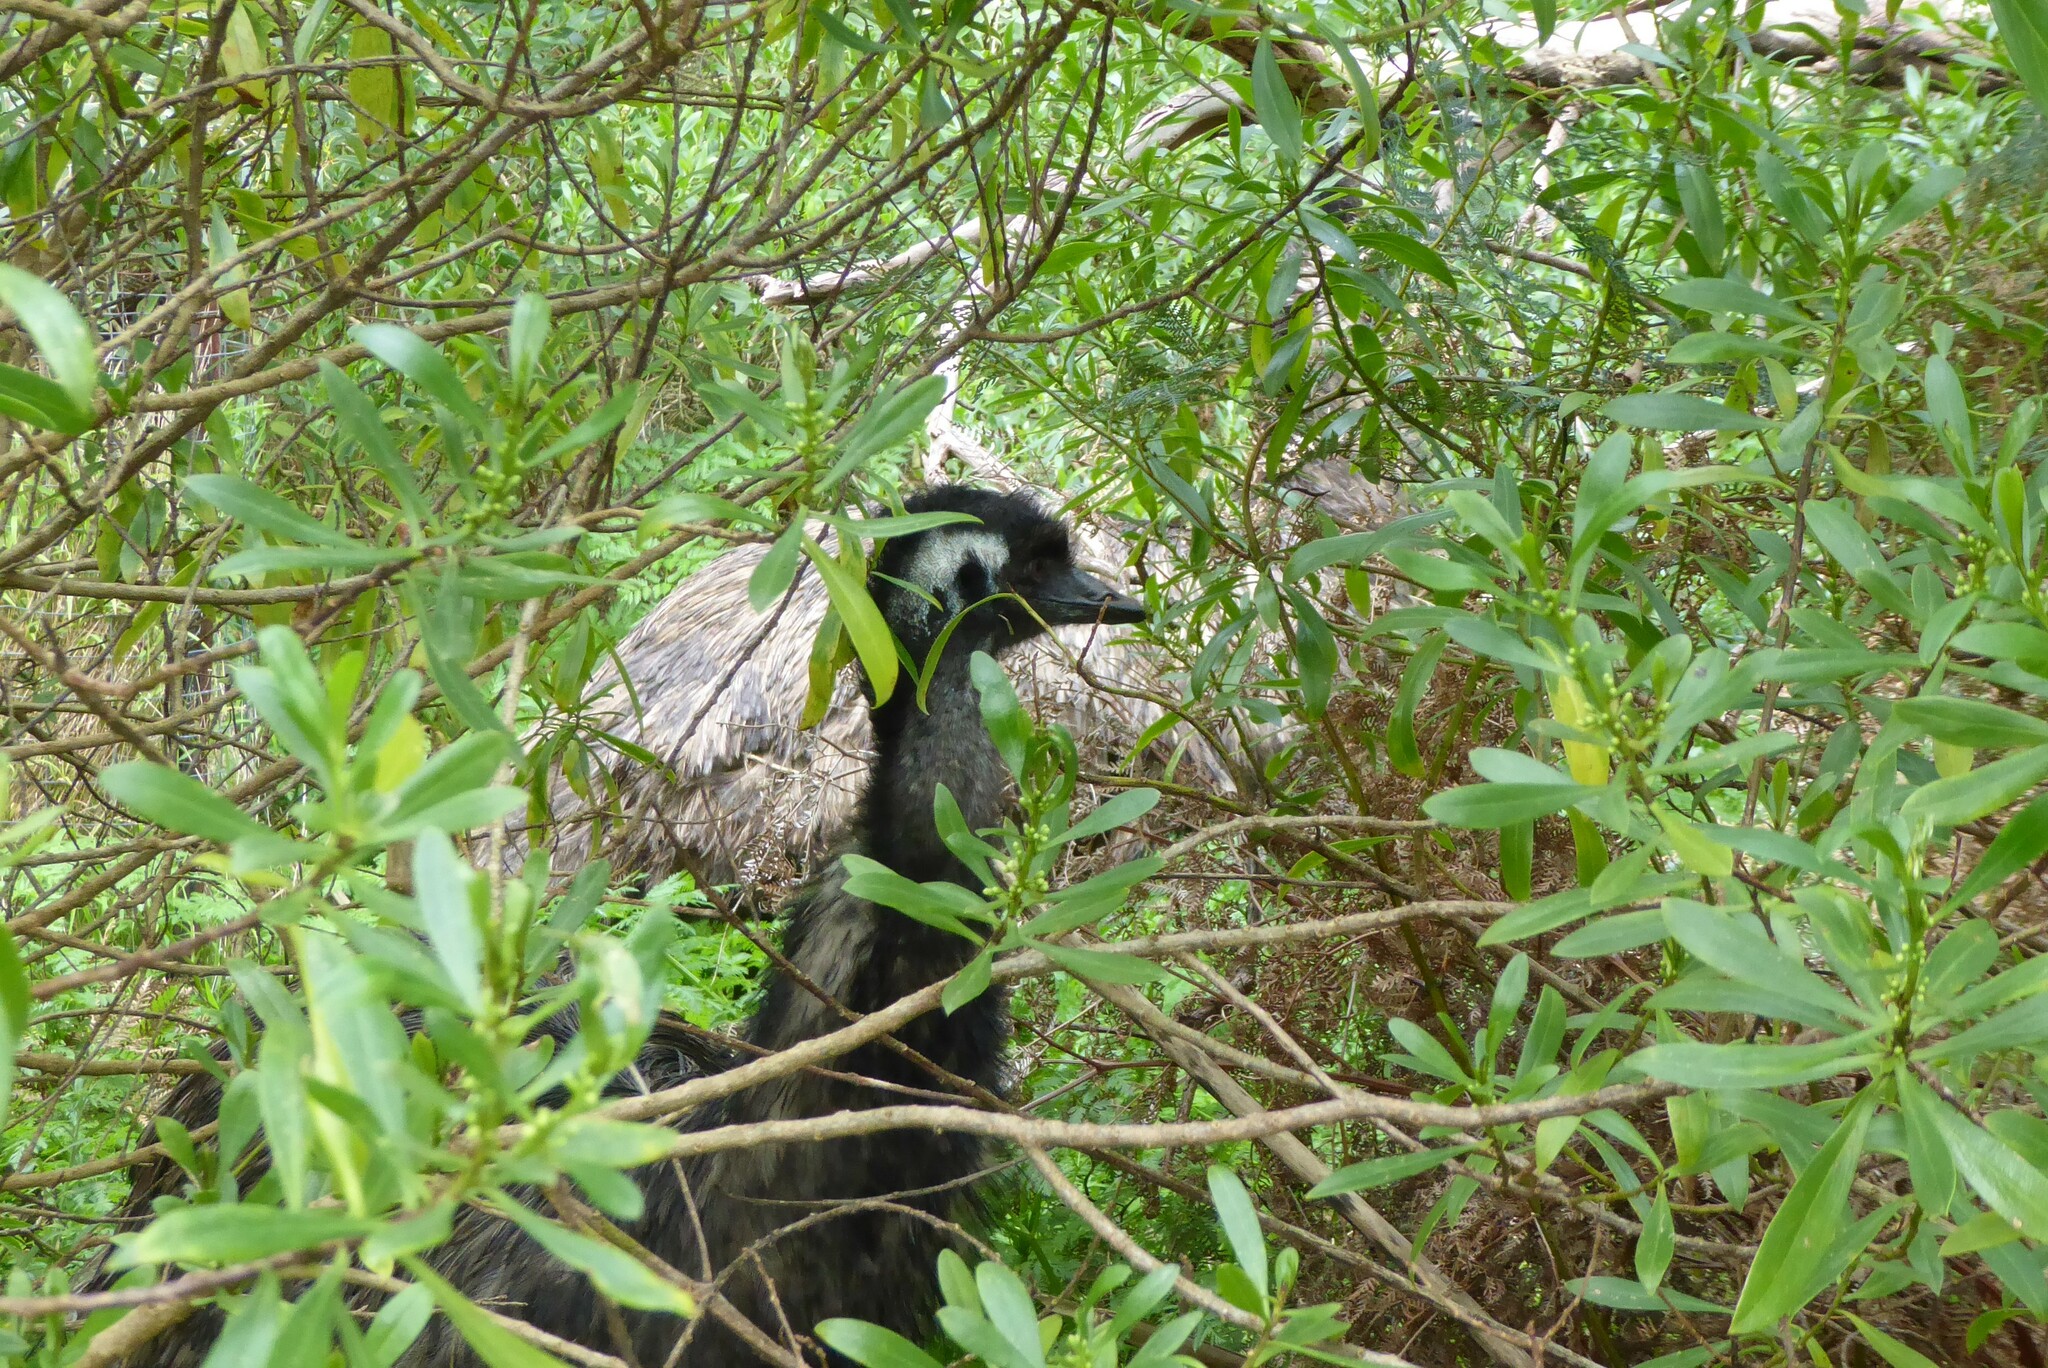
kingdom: Animalia
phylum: Chordata
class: Aves
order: Casuariiformes
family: Dromaiidae
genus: Dromaius
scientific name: Dromaius novaehollandiae
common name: Emu
